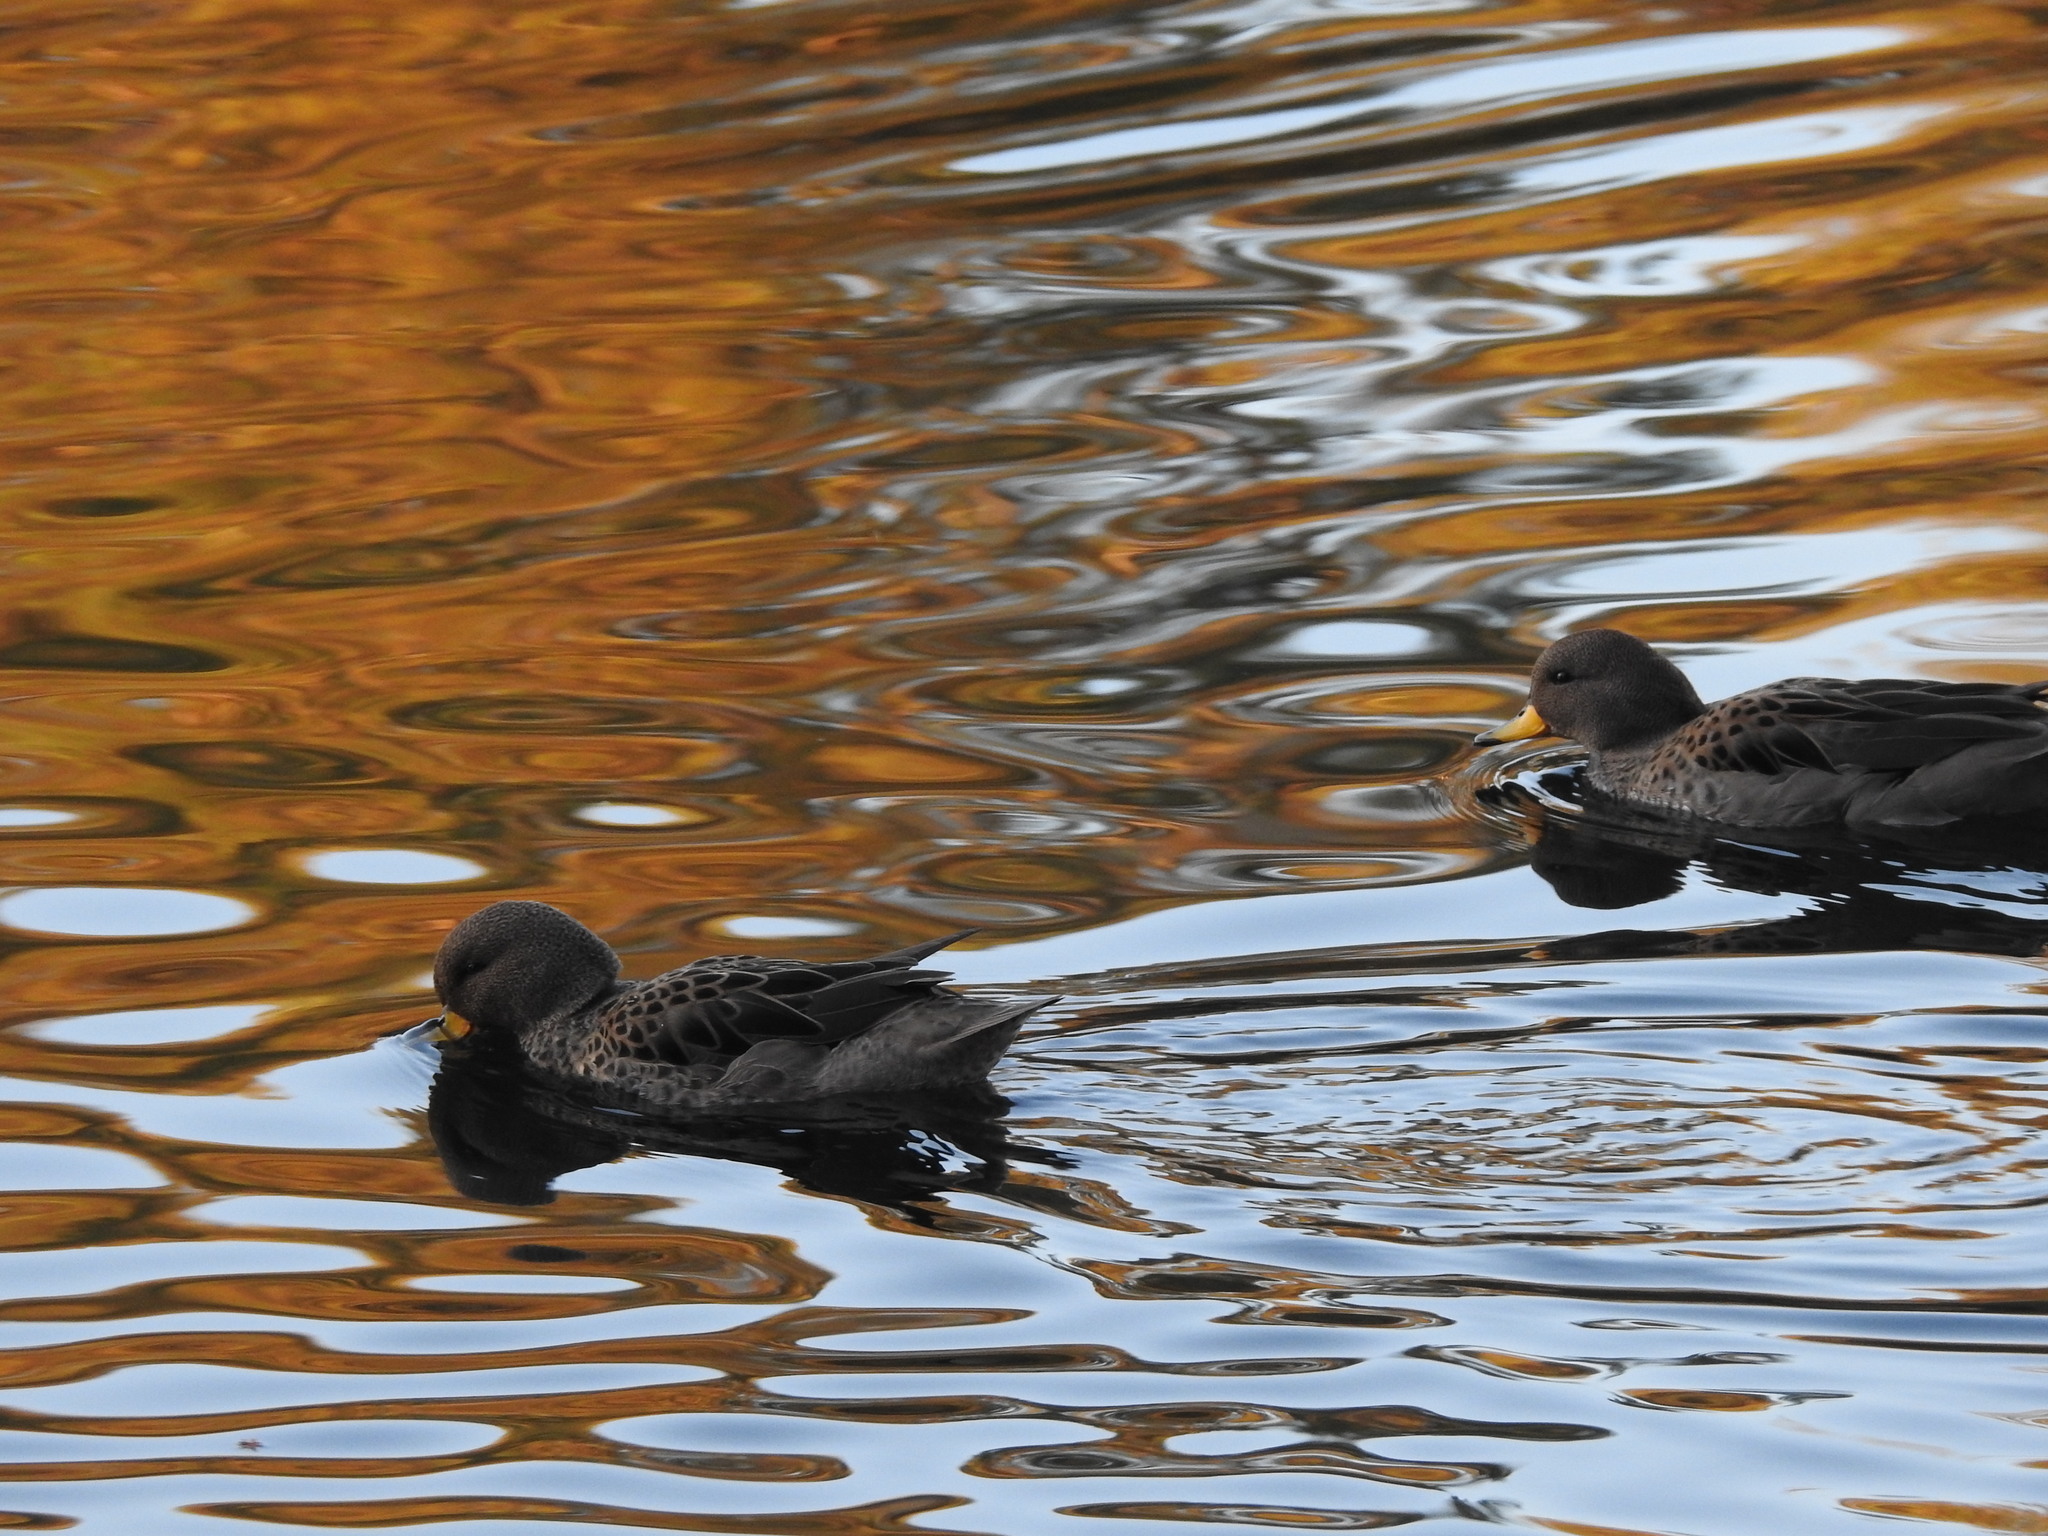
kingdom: Animalia
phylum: Chordata
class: Aves
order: Anseriformes
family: Anatidae
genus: Anas
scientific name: Anas flavirostris
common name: Yellow-billed teal
